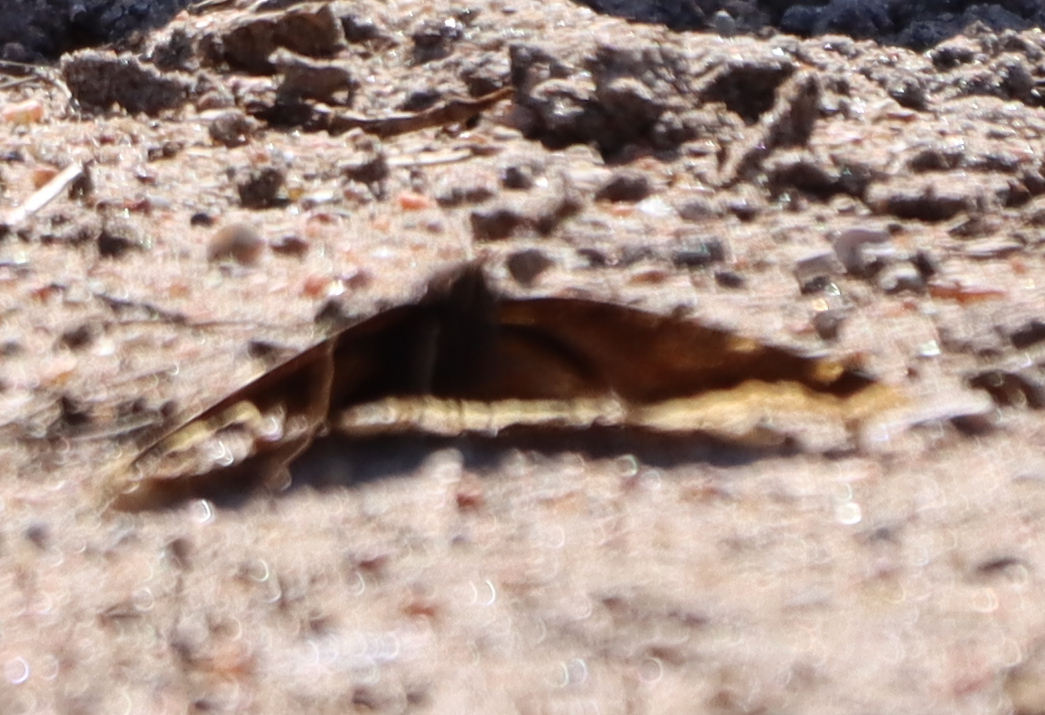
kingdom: Animalia
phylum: Arthropoda
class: Insecta
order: Lepidoptera
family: Nymphalidae
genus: Nymphalis
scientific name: Nymphalis antiopa
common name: Camberwell beauty
